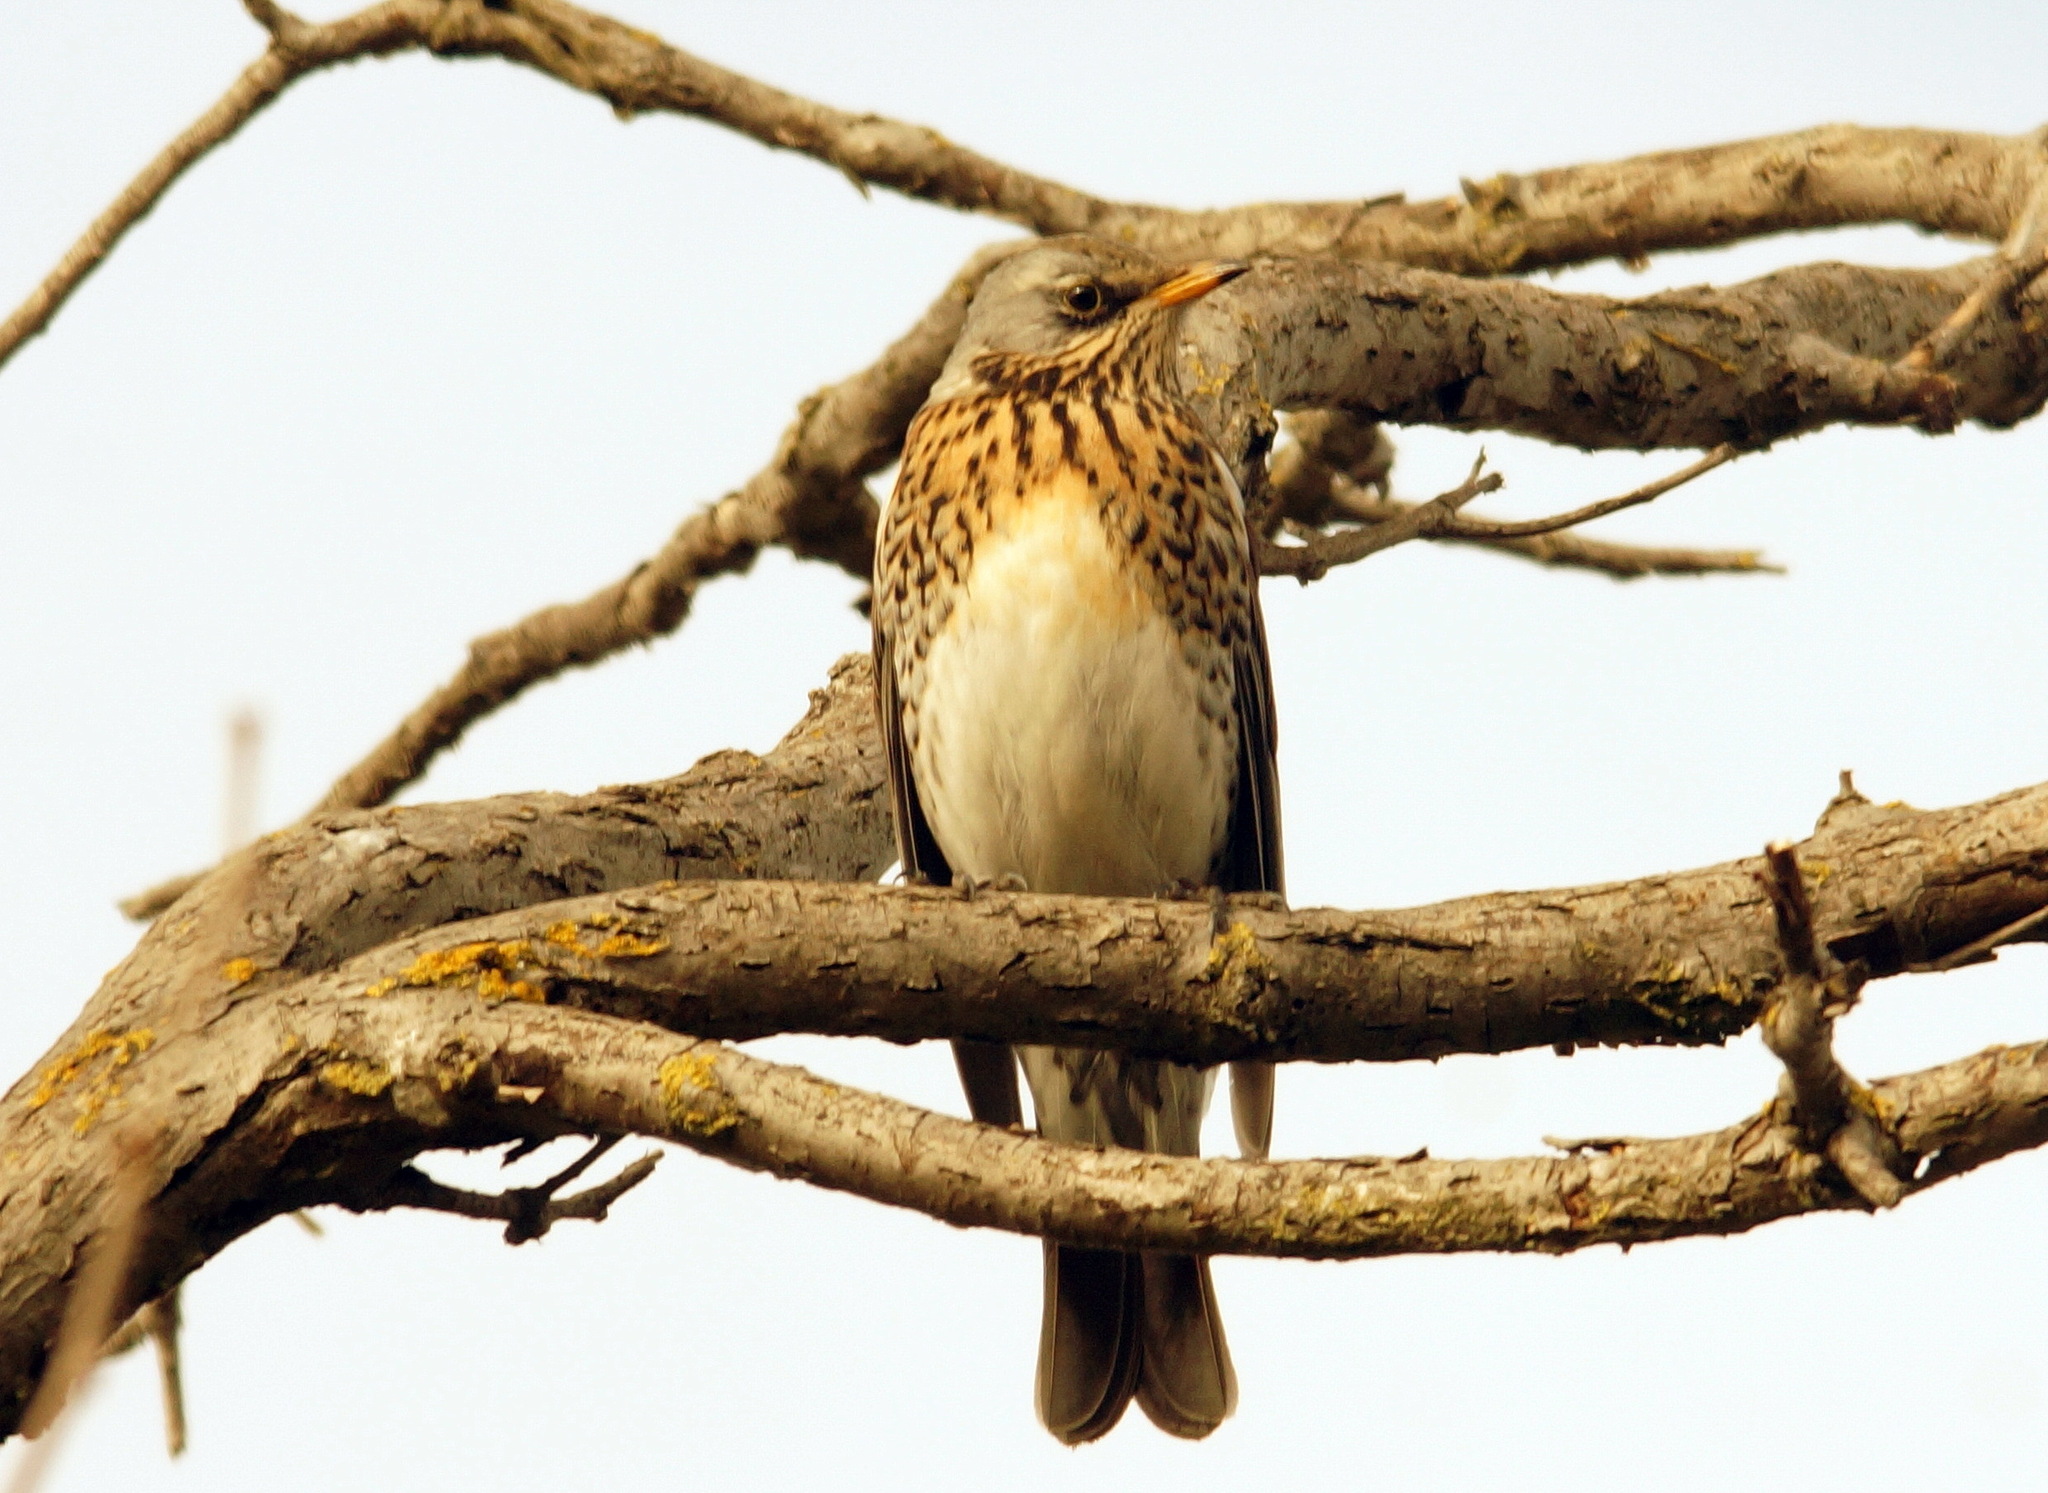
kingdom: Animalia
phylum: Chordata
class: Aves
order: Passeriformes
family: Turdidae
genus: Turdus
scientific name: Turdus pilaris
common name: Fieldfare
